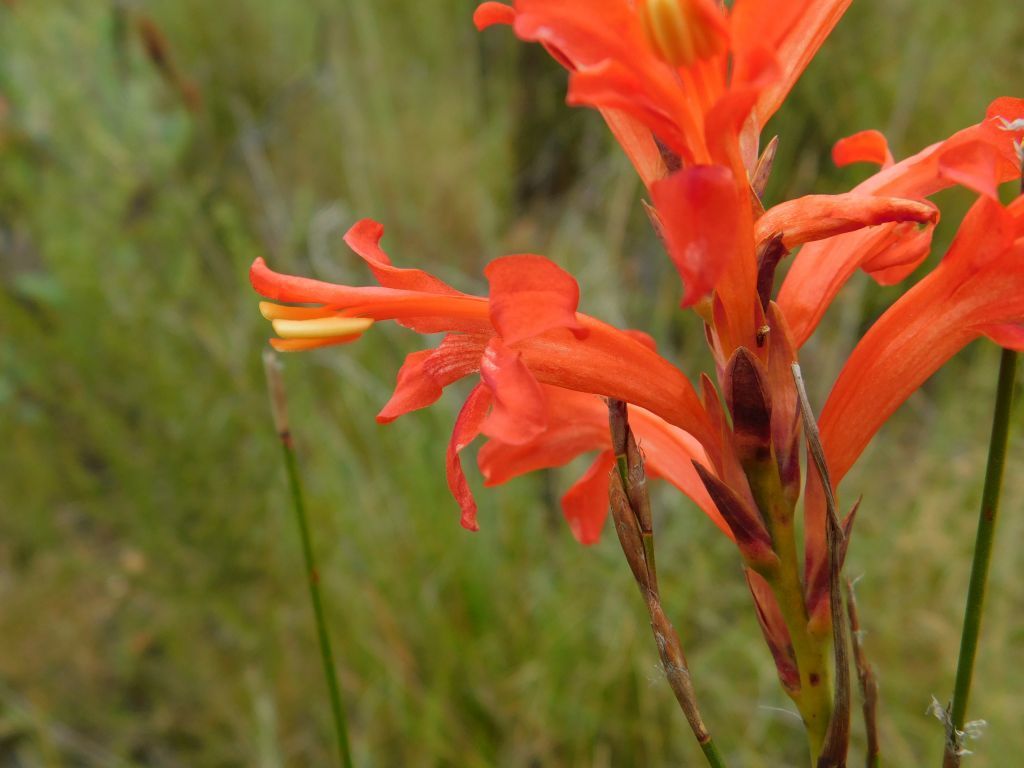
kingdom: Plantae
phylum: Tracheophyta
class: Liliopsida
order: Asparagales
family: Iridaceae
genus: Tritoniopsis
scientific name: Tritoniopsis triticea
